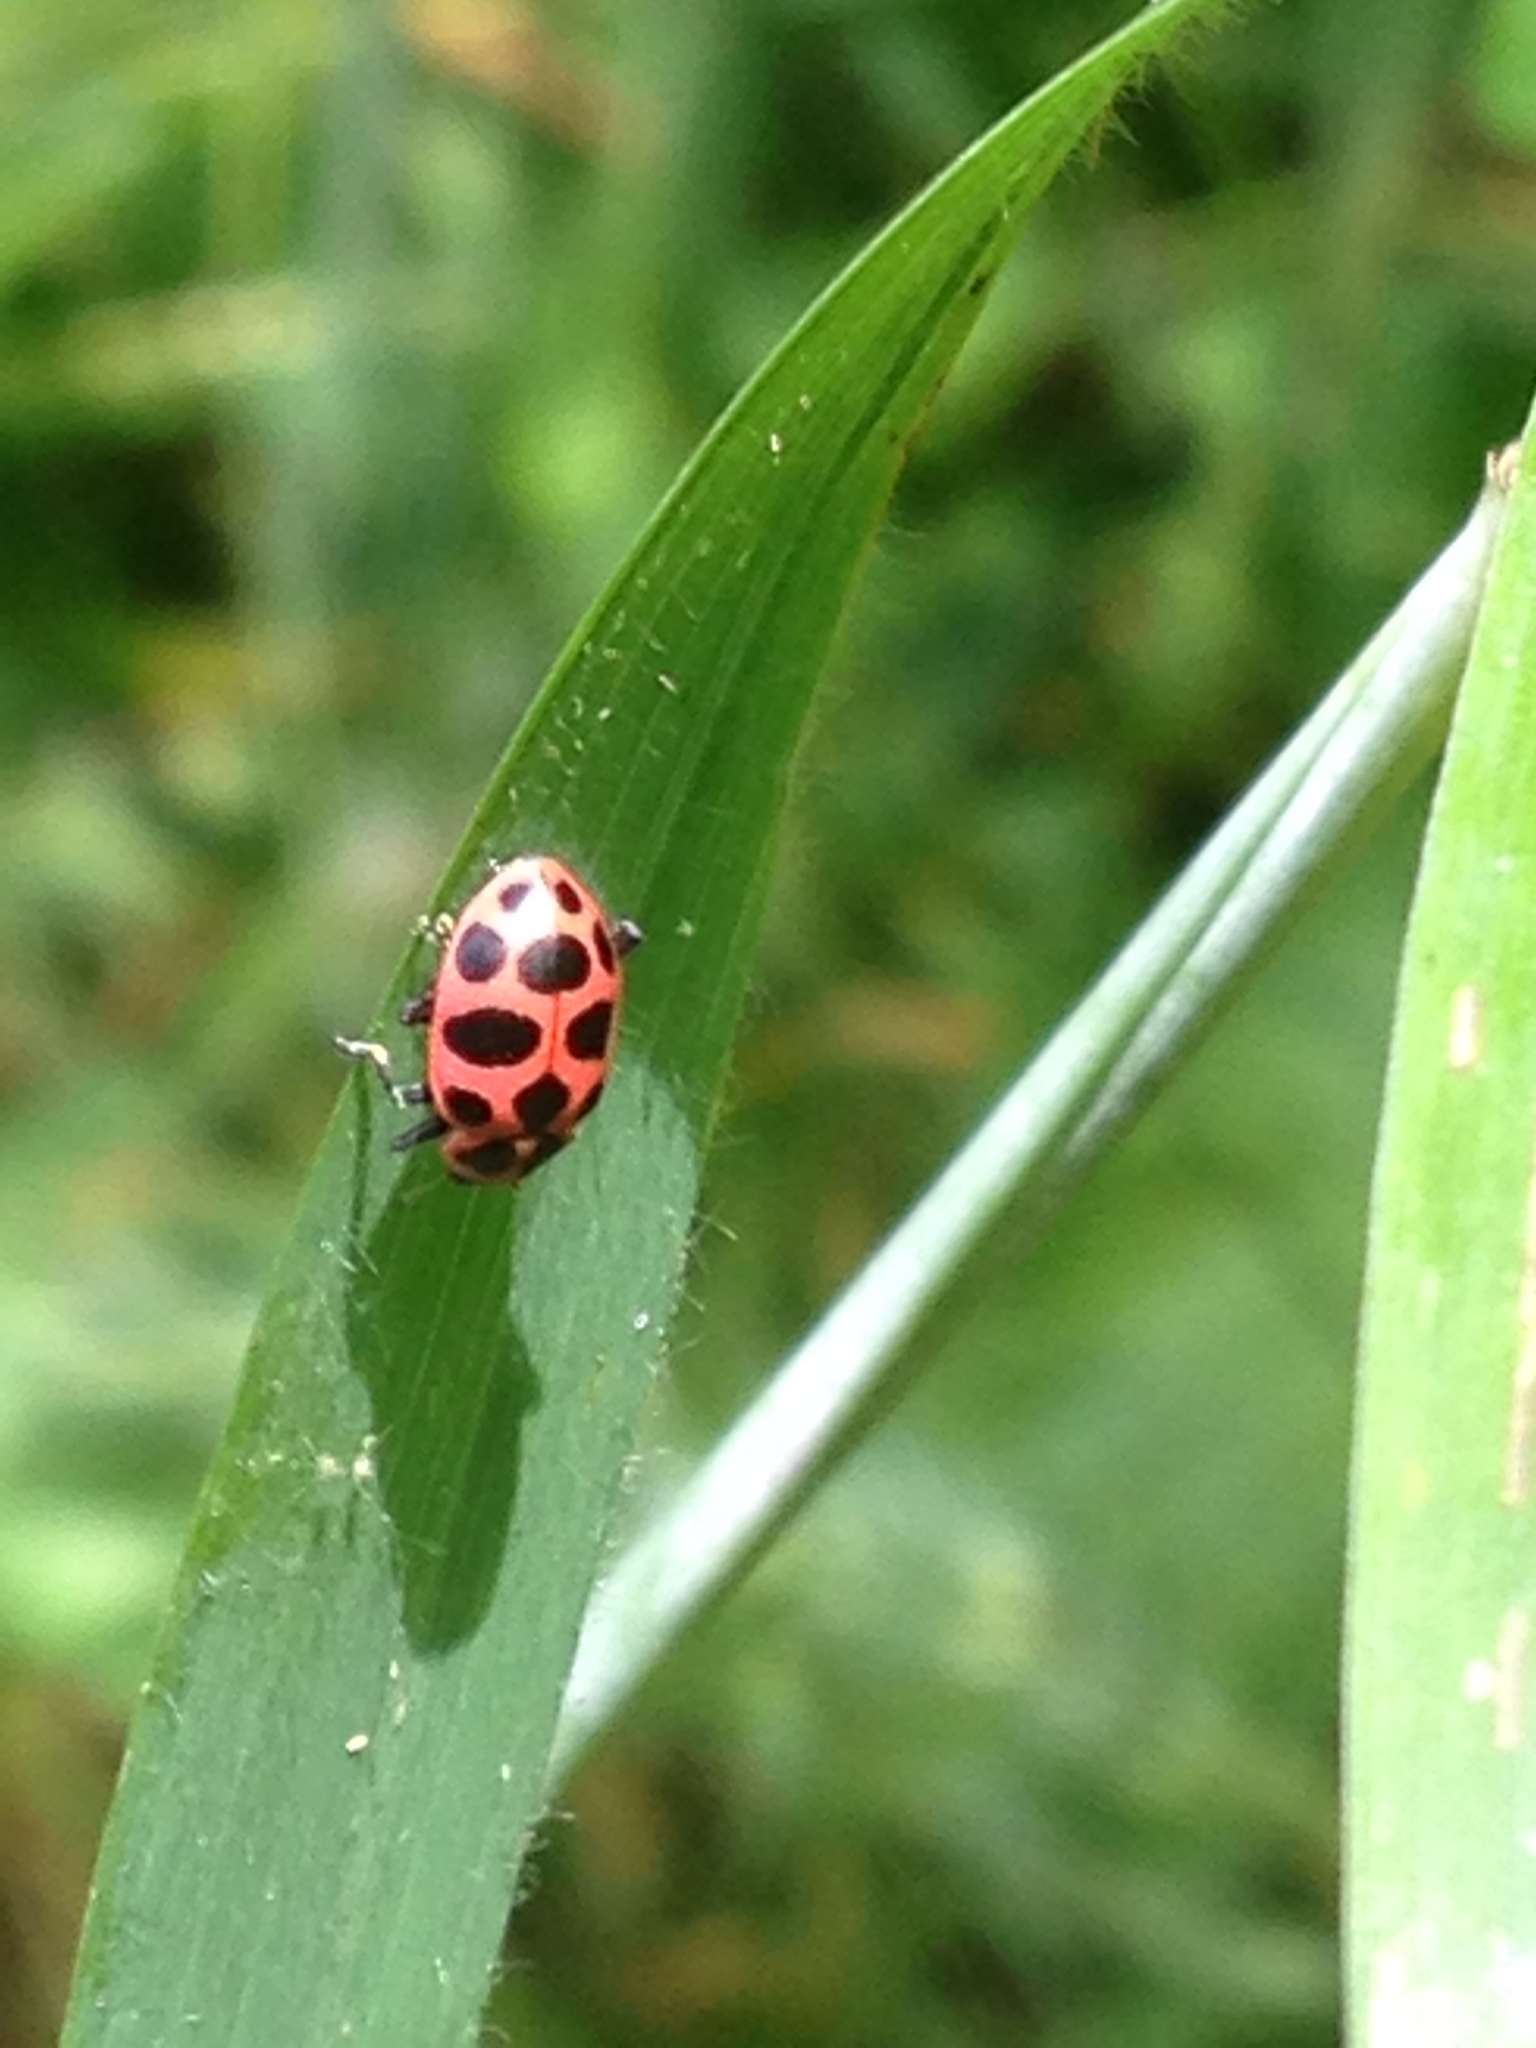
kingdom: Animalia
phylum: Arthropoda
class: Insecta
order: Coleoptera
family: Coccinellidae
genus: Coleomegilla
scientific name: Coleomegilla maculata
